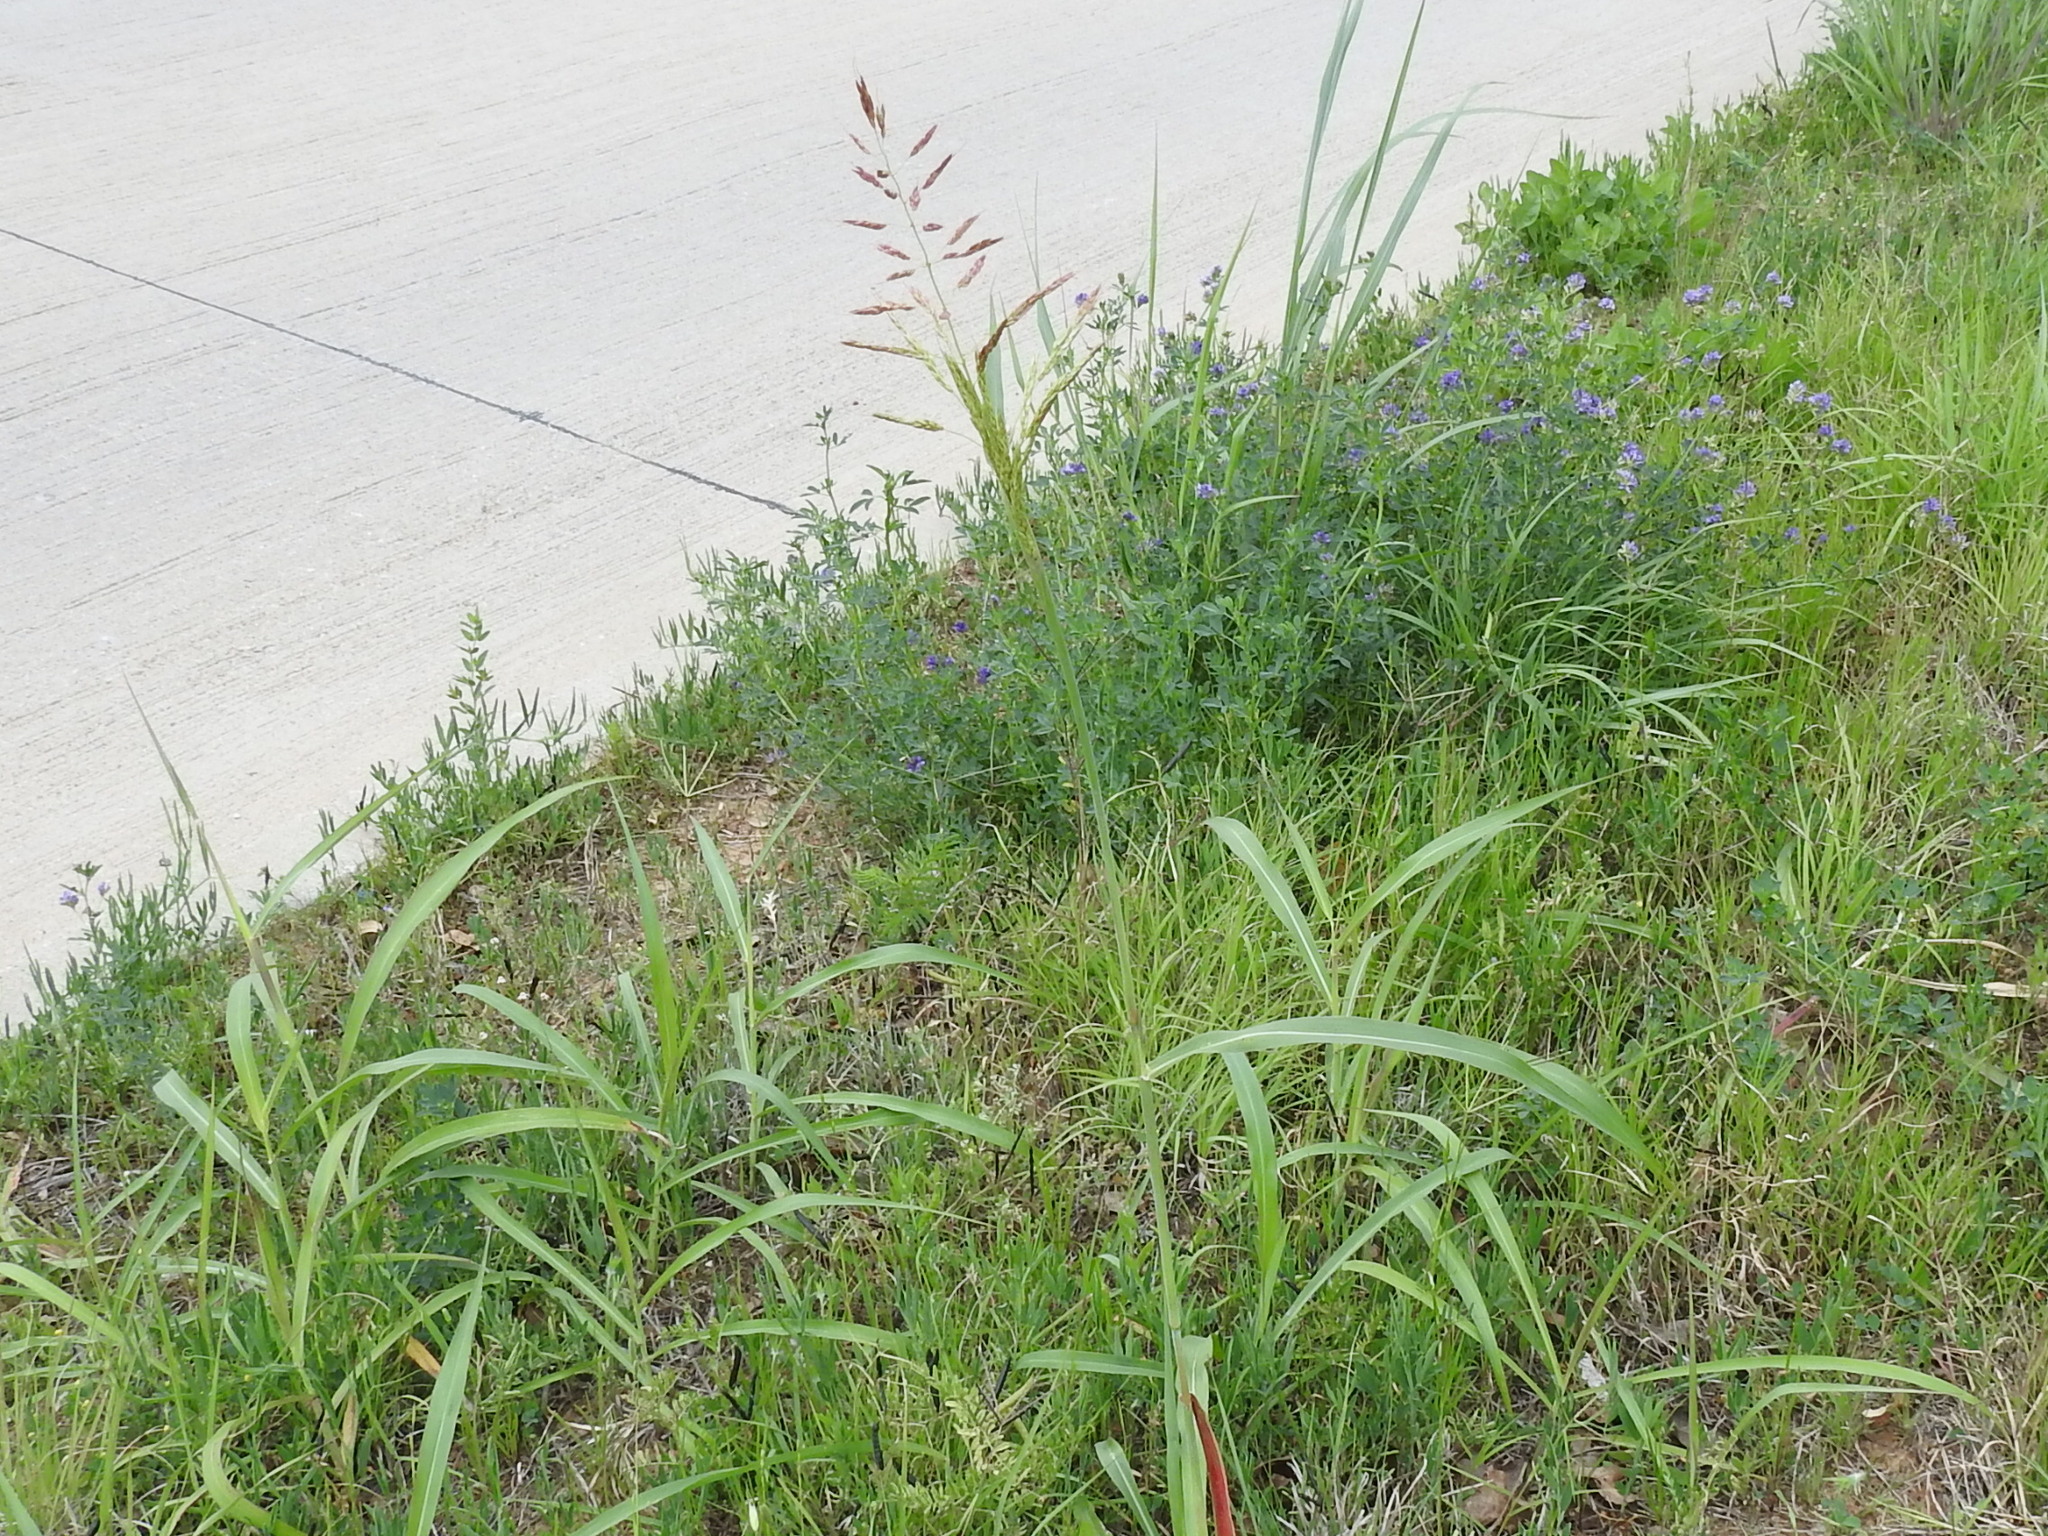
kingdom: Plantae
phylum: Tracheophyta
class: Liliopsida
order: Poales
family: Poaceae
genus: Sorghum
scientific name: Sorghum halepense
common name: Johnson-grass
